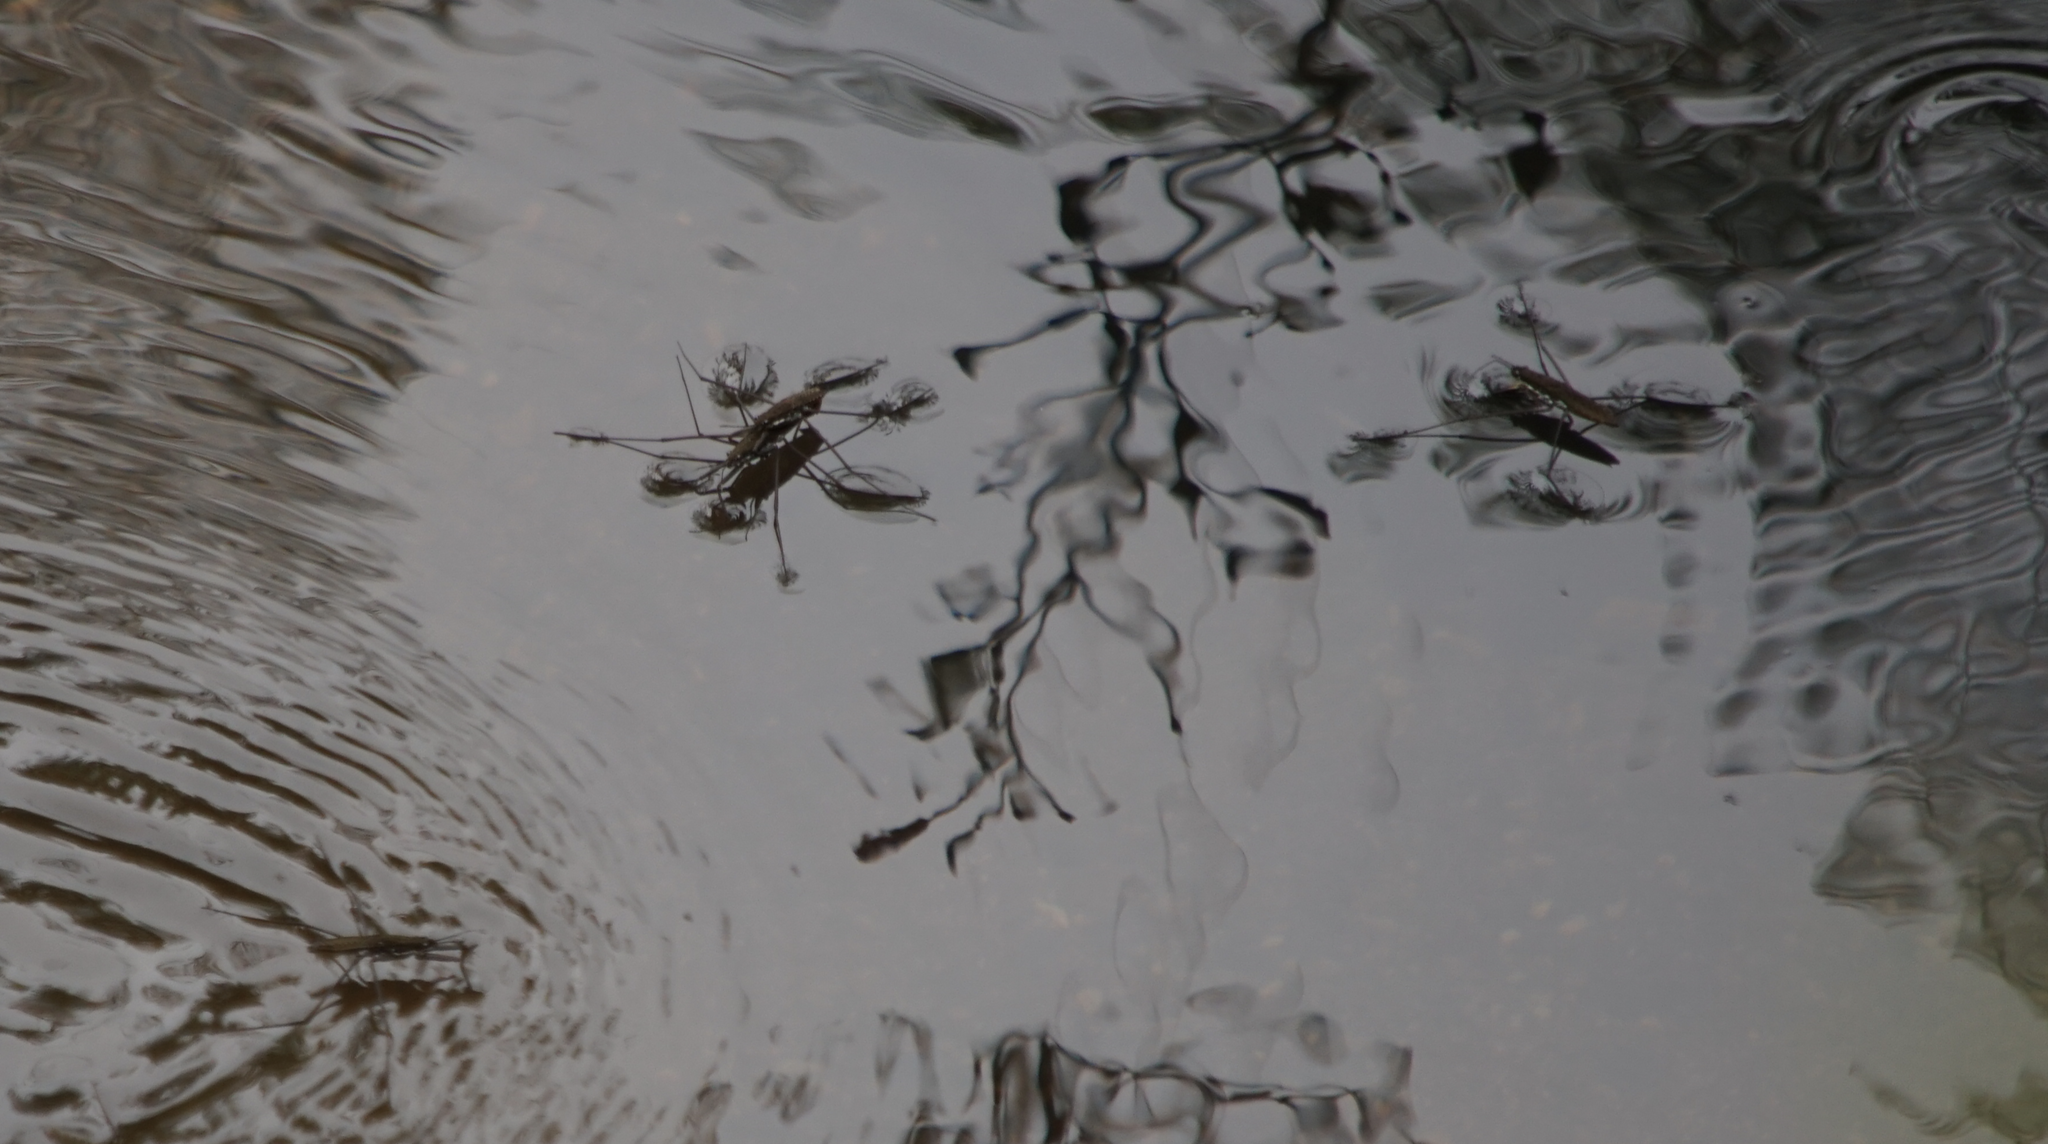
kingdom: Animalia
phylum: Arthropoda
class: Insecta
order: Hemiptera
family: Gerridae
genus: Aquarius
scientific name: Aquarius remigis
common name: Common water strider
